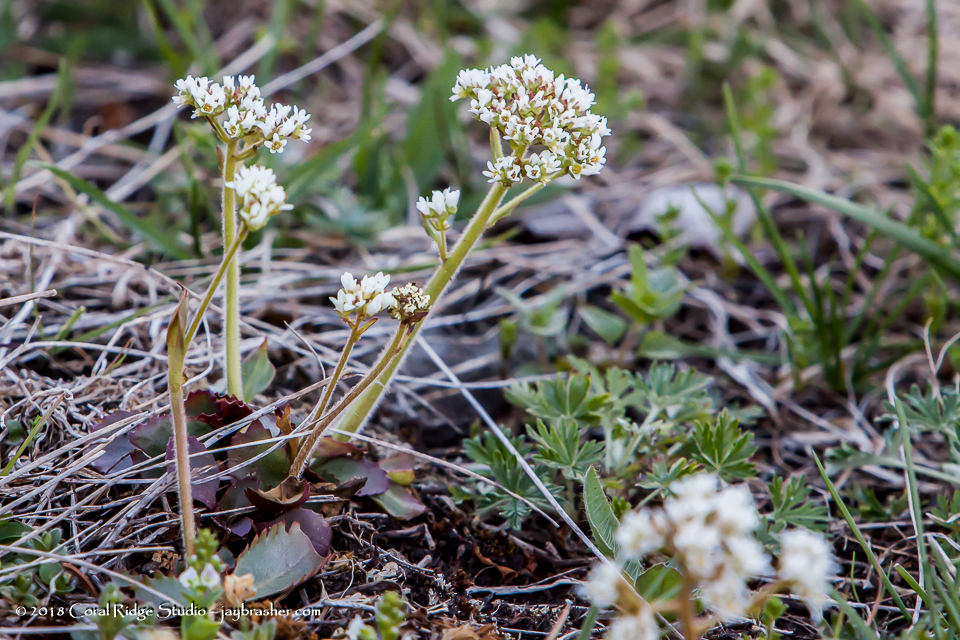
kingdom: Plantae
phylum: Tracheophyta
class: Magnoliopsida
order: Saxifragales
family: Saxifragaceae
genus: Micranthes
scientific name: Micranthes virginiensis
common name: Early saxifrage
